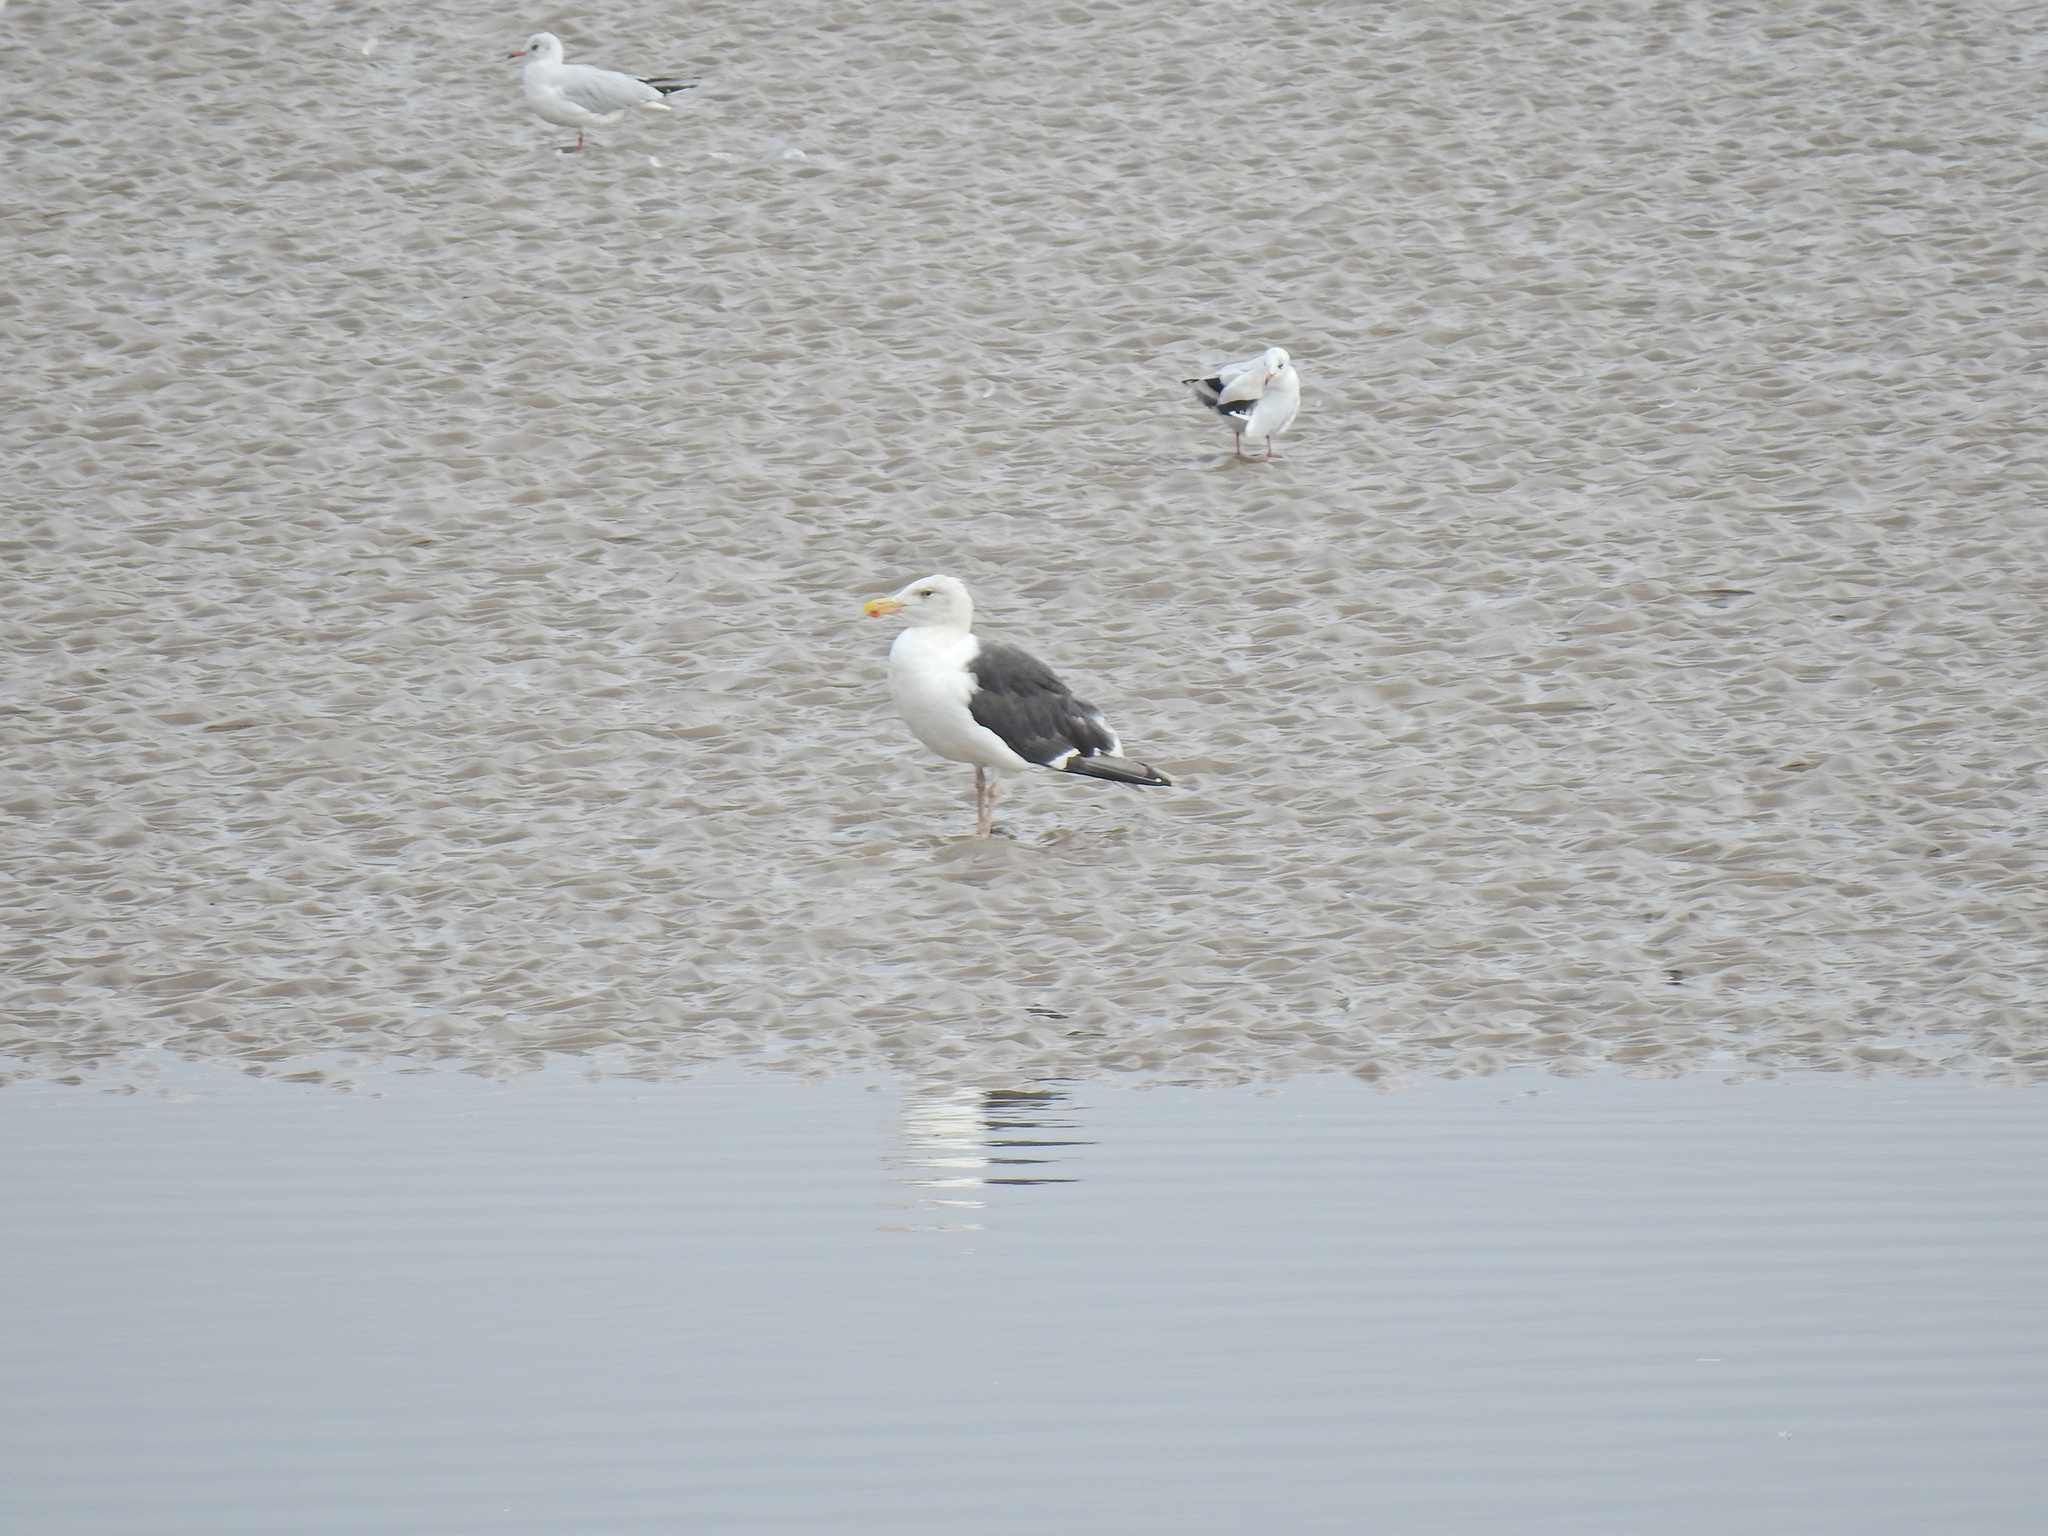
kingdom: Animalia
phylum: Chordata
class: Aves
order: Charadriiformes
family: Laridae
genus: Larus
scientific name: Larus marinus
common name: Great black-backed gull
